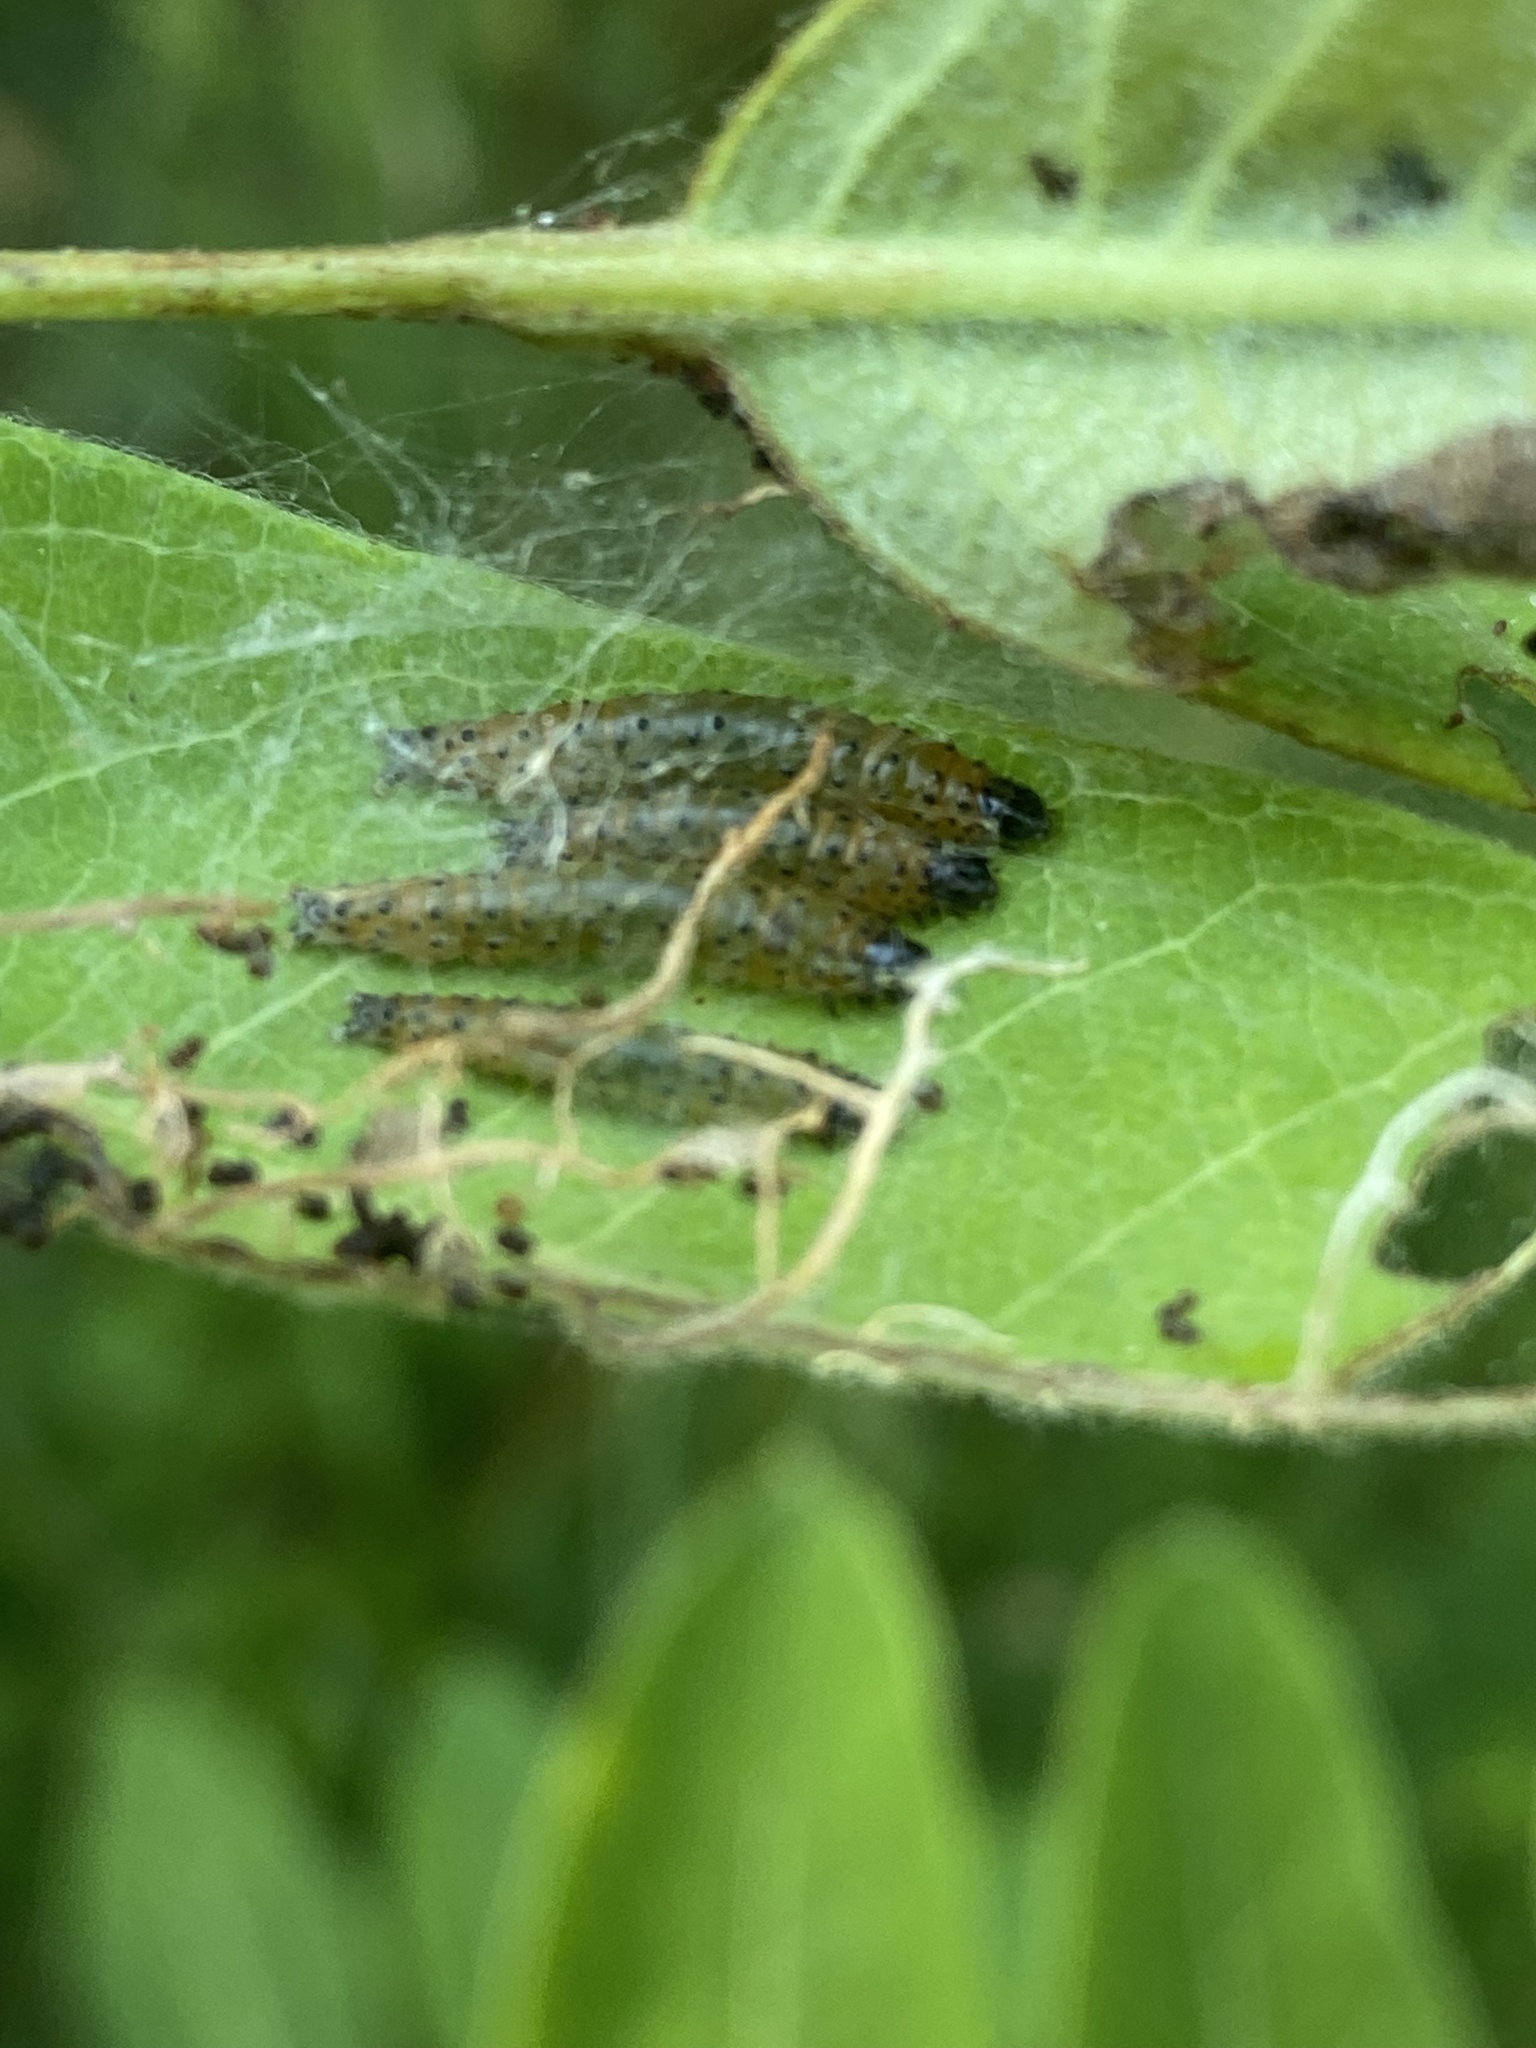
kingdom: Animalia
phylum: Arthropoda
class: Insecta
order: Lepidoptera
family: Crambidae
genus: Saucrobotys
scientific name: Saucrobotys futilalis
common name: Dogbane saucrobotys moth
